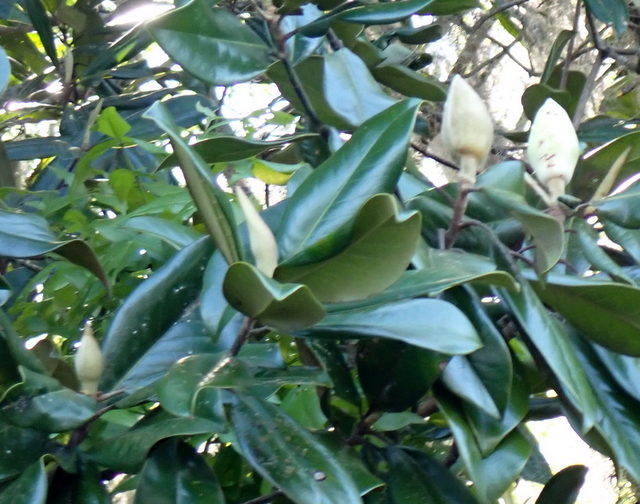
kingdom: Plantae
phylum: Tracheophyta
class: Magnoliopsida
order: Magnoliales
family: Magnoliaceae
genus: Magnolia
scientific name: Magnolia grandiflora
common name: Southern magnolia
